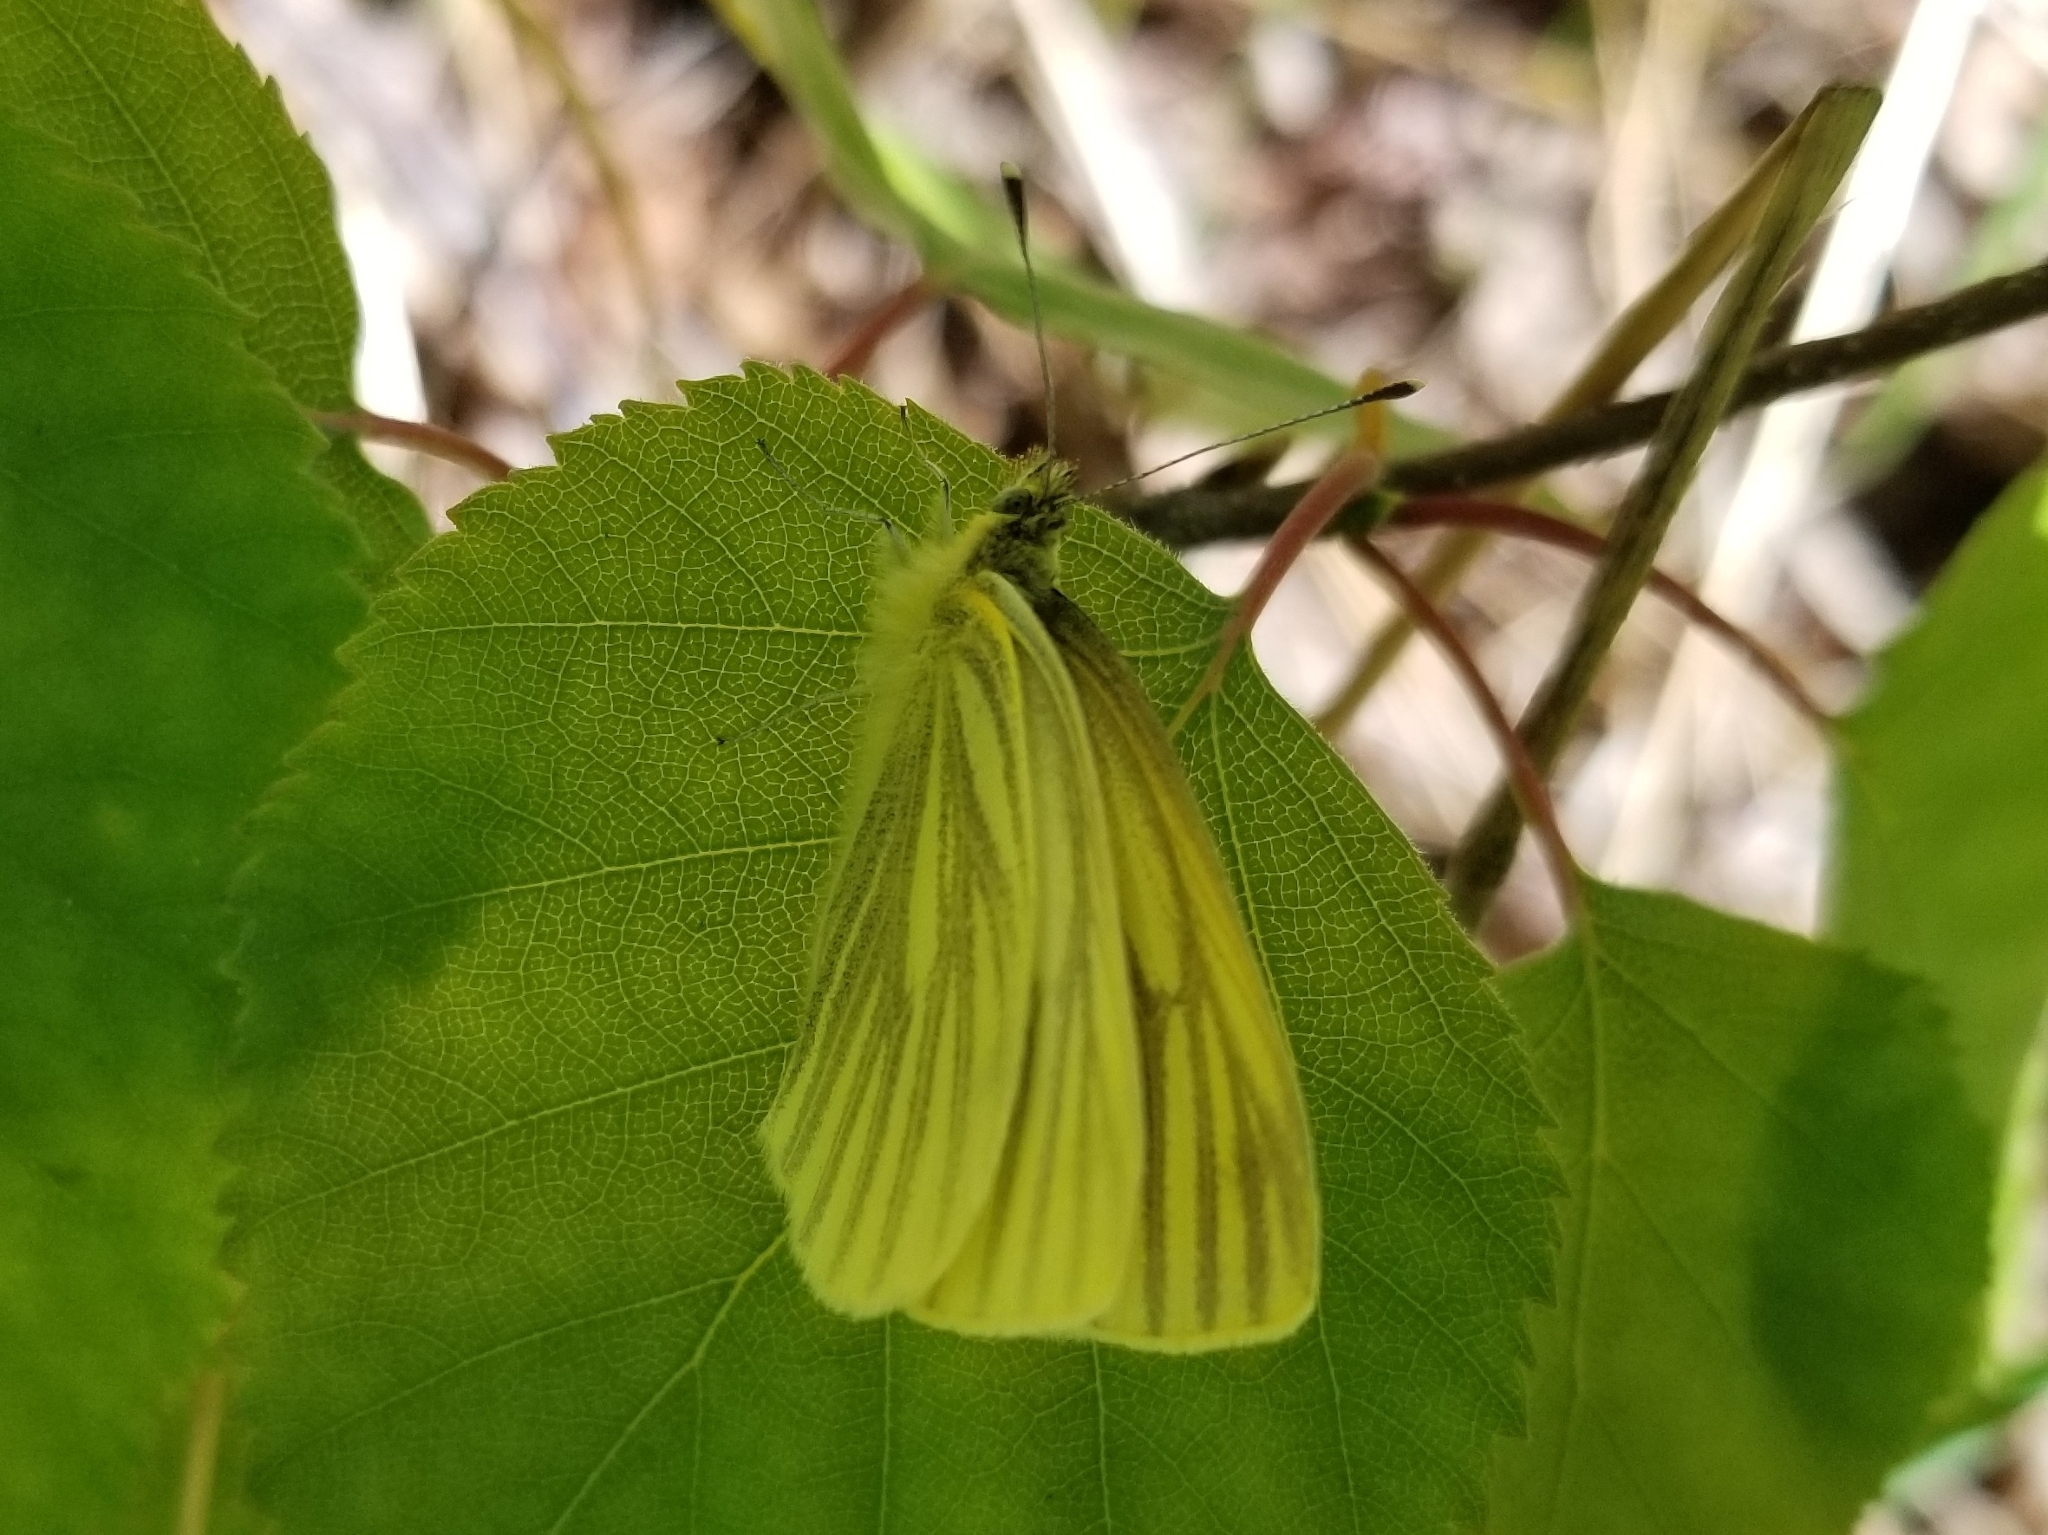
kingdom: Animalia
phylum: Arthropoda
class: Insecta
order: Lepidoptera
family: Pieridae
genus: Pieris
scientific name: Pieris marginalis
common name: Margined white
